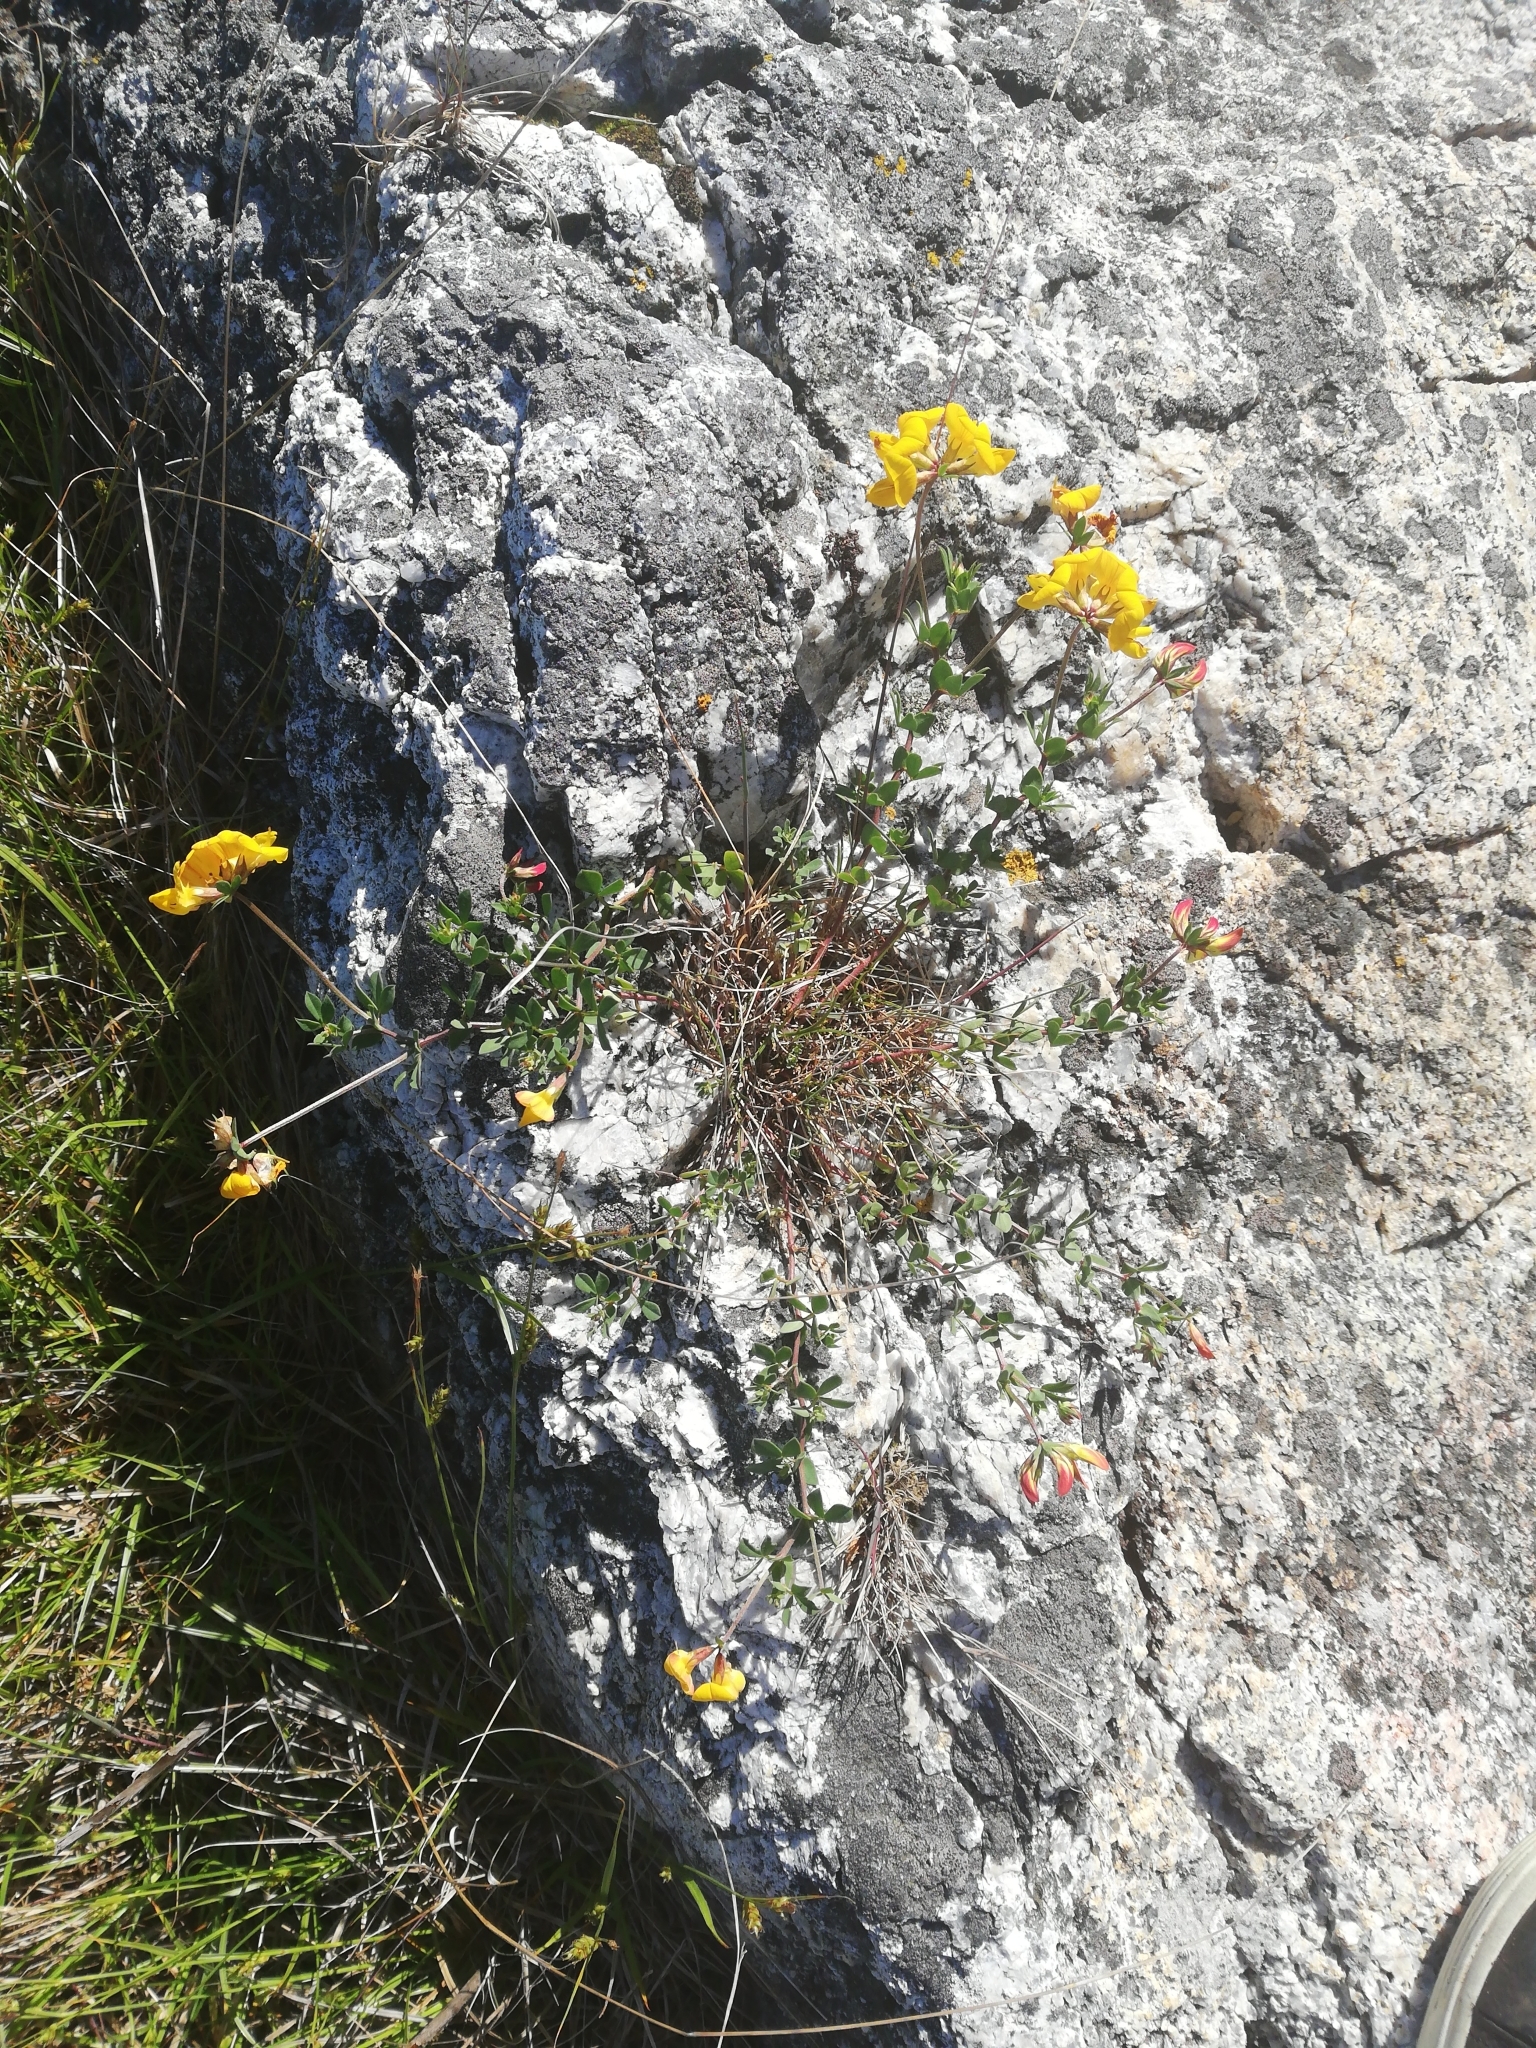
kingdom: Plantae
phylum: Tracheophyta
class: Magnoliopsida
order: Fabales
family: Fabaceae
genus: Lotus
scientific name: Lotus corniculatus
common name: Common bird's-foot-trefoil
